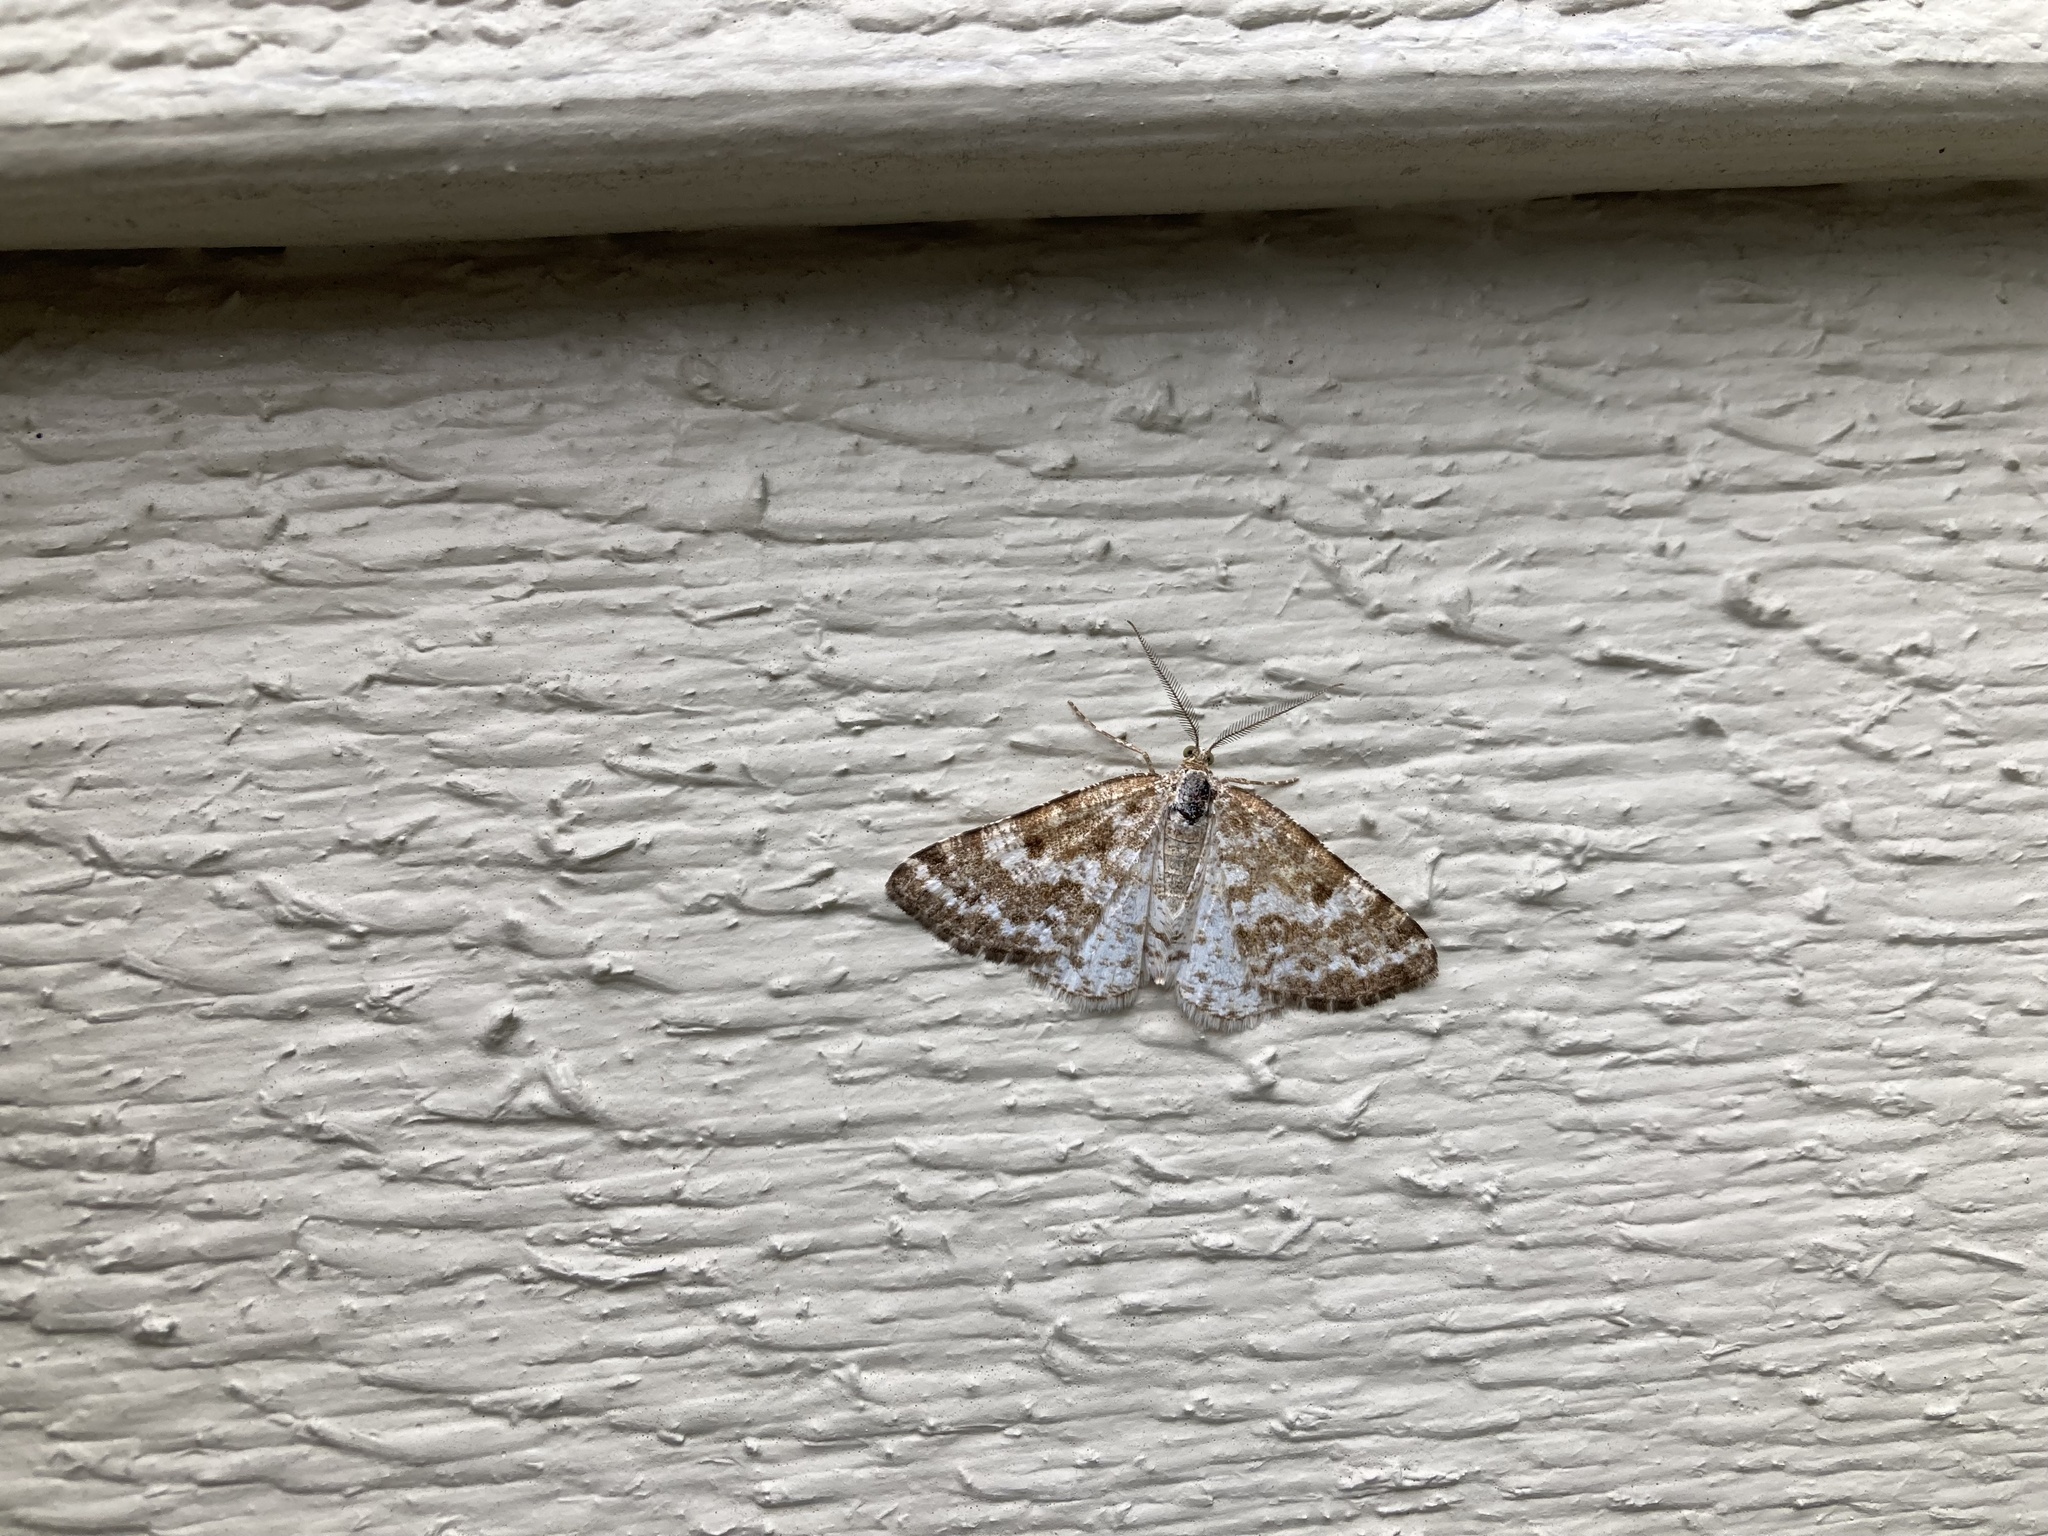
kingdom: Animalia
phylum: Arthropoda
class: Insecta
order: Lepidoptera
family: Geometridae
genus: Eufidonia
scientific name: Eufidonia notataria
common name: Powder moth
